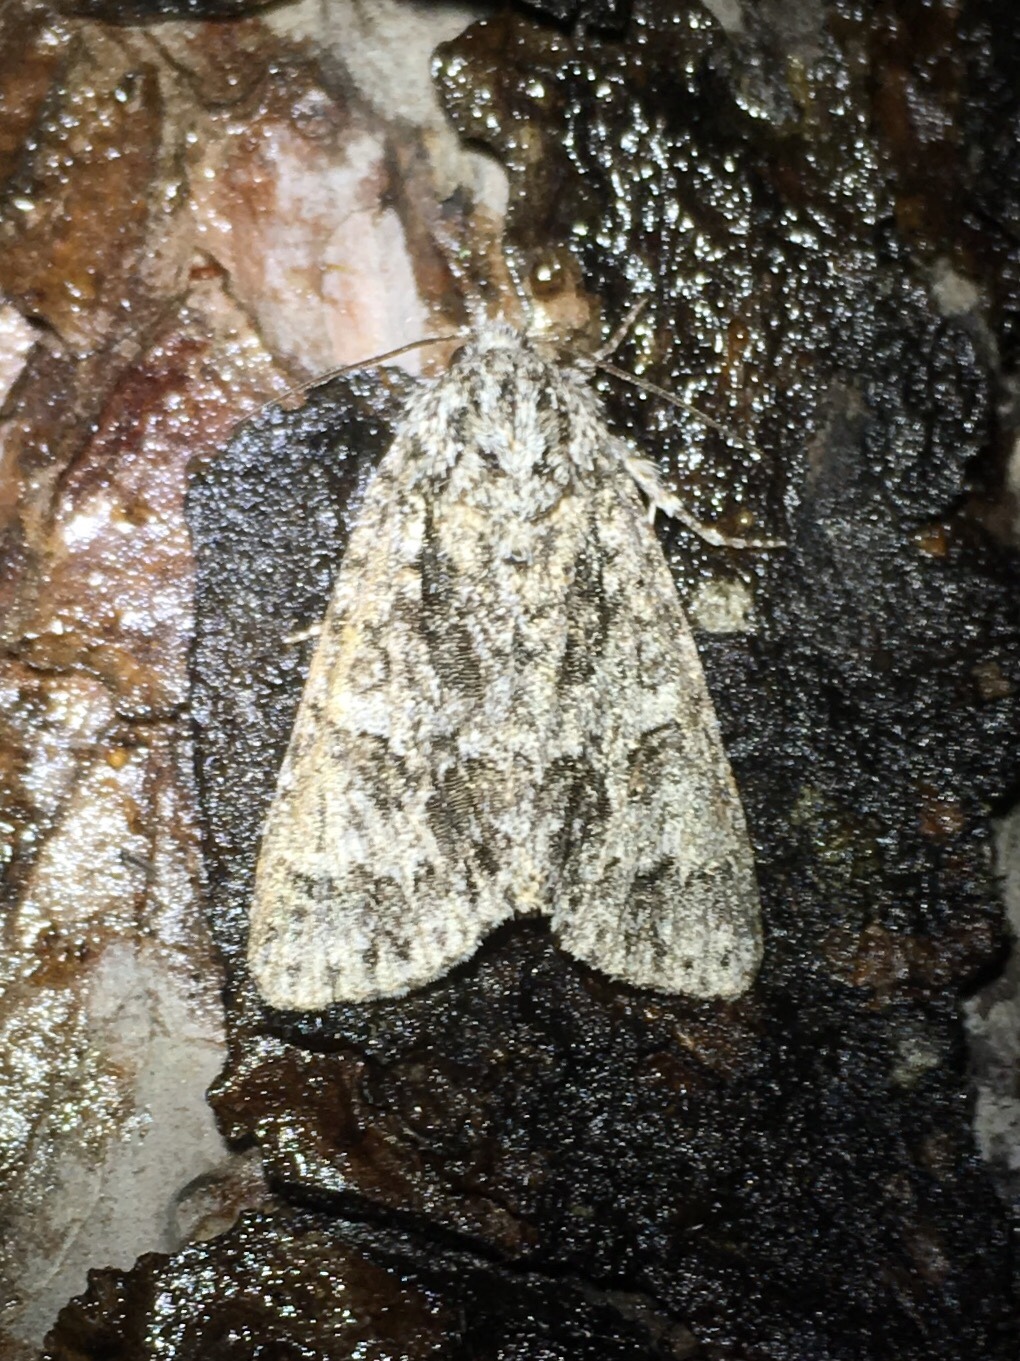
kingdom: Animalia
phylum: Arthropoda
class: Insecta
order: Lepidoptera
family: Noctuidae
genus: Acronicta
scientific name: Acronicta impressa
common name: Impressed dagger
